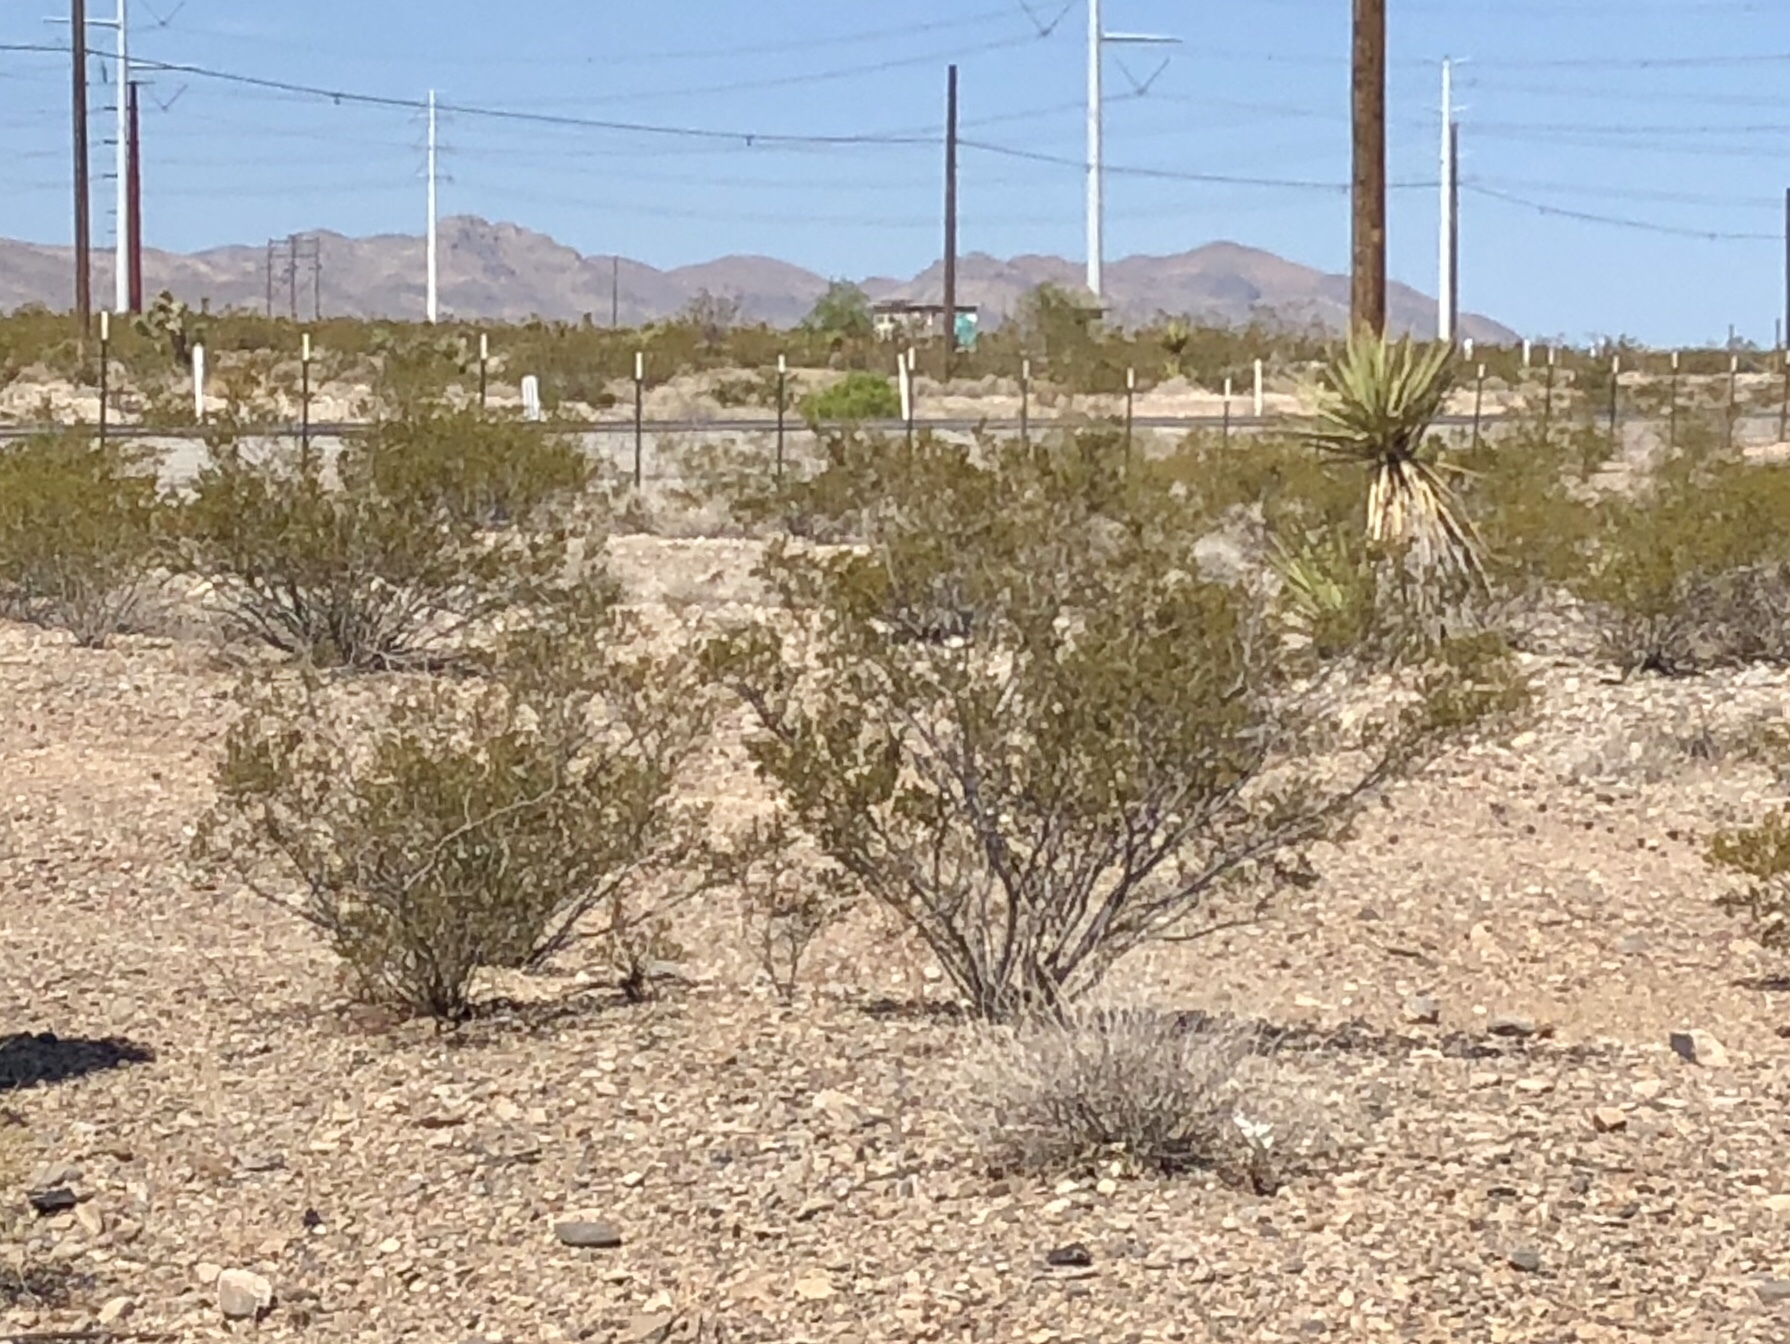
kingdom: Plantae
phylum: Tracheophyta
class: Magnoliopsida
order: Zygophyllales
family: Zygophyllaceae
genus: Larrea
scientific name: Larrea tridentata
